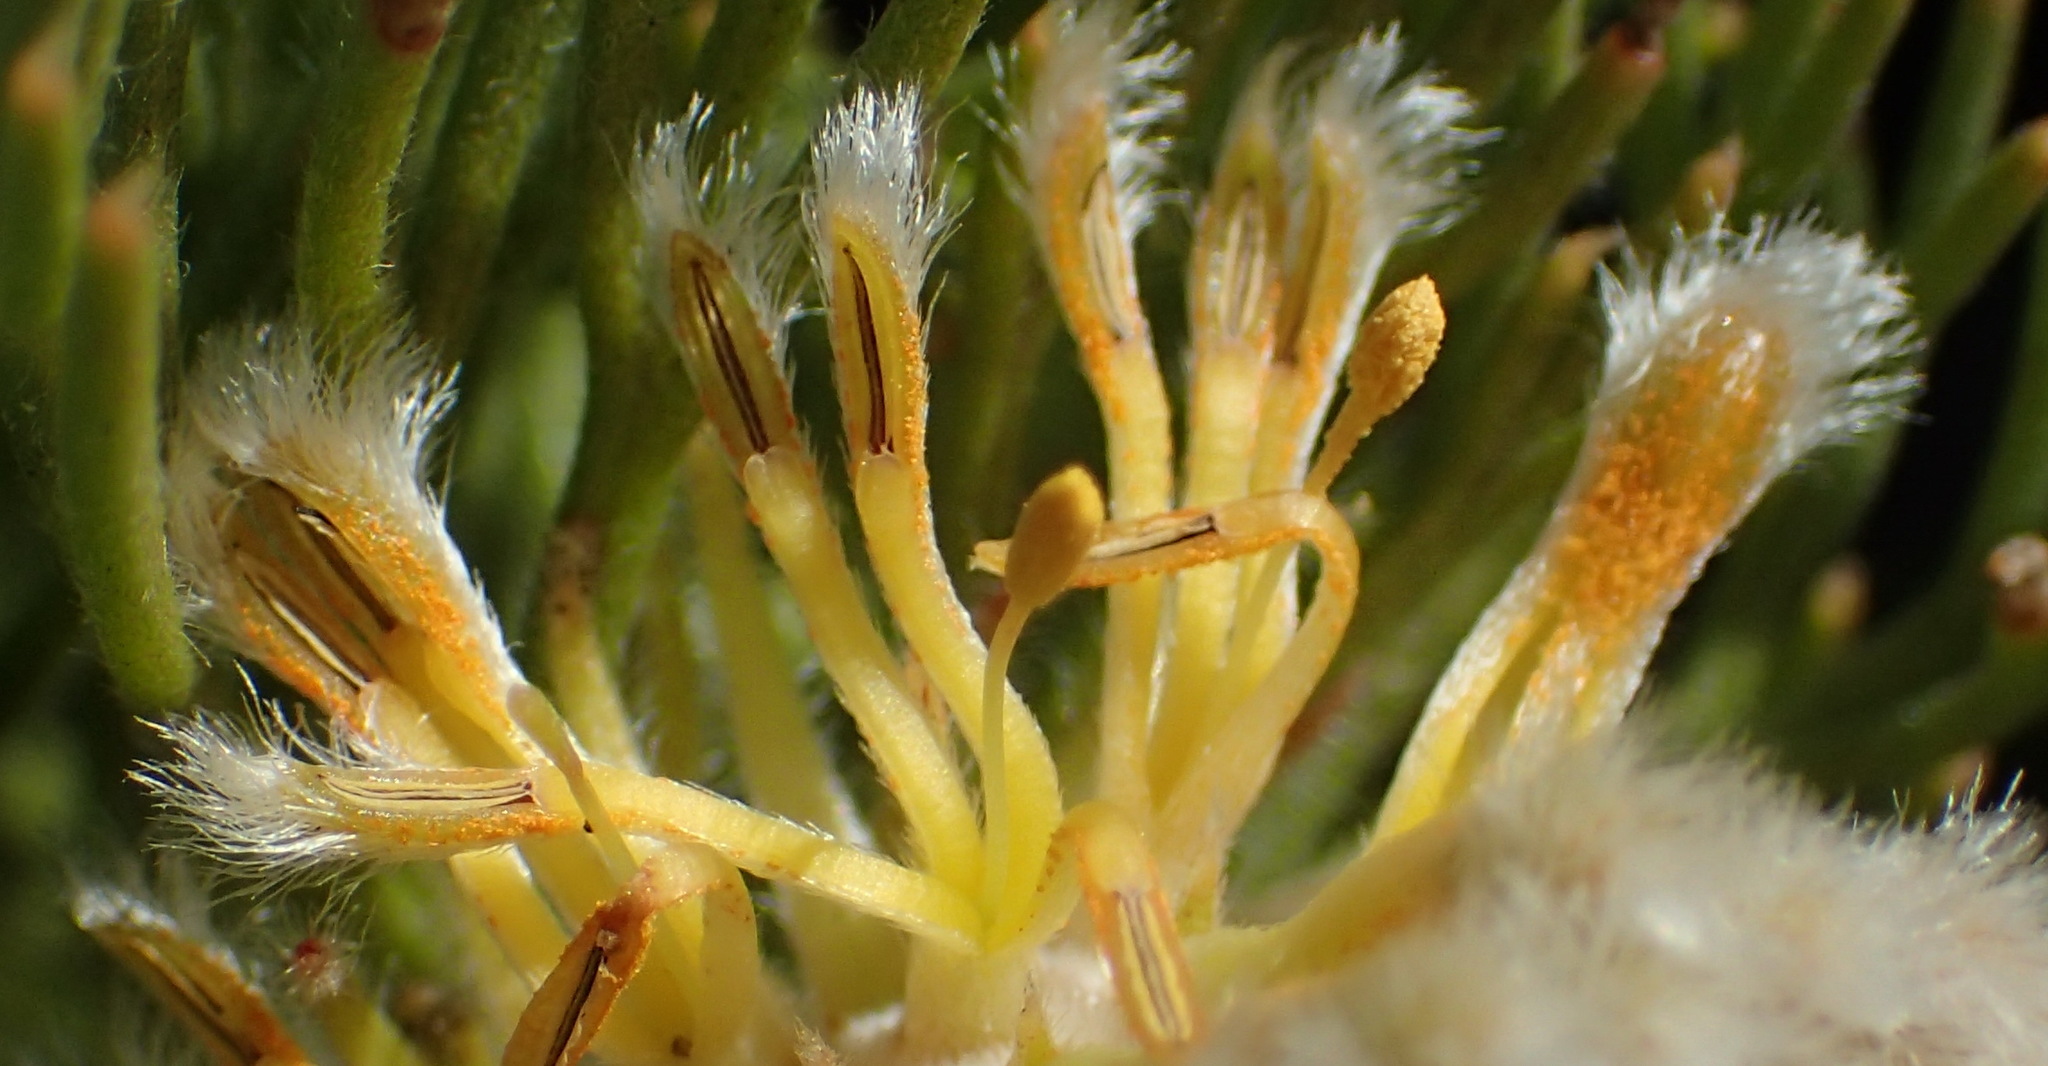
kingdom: Plantae
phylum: Tracheophyta
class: Magnoliopsida
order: Proteales
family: Proteaceae
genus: Serruria
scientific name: Serruria villosa
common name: Golden spiderhead
